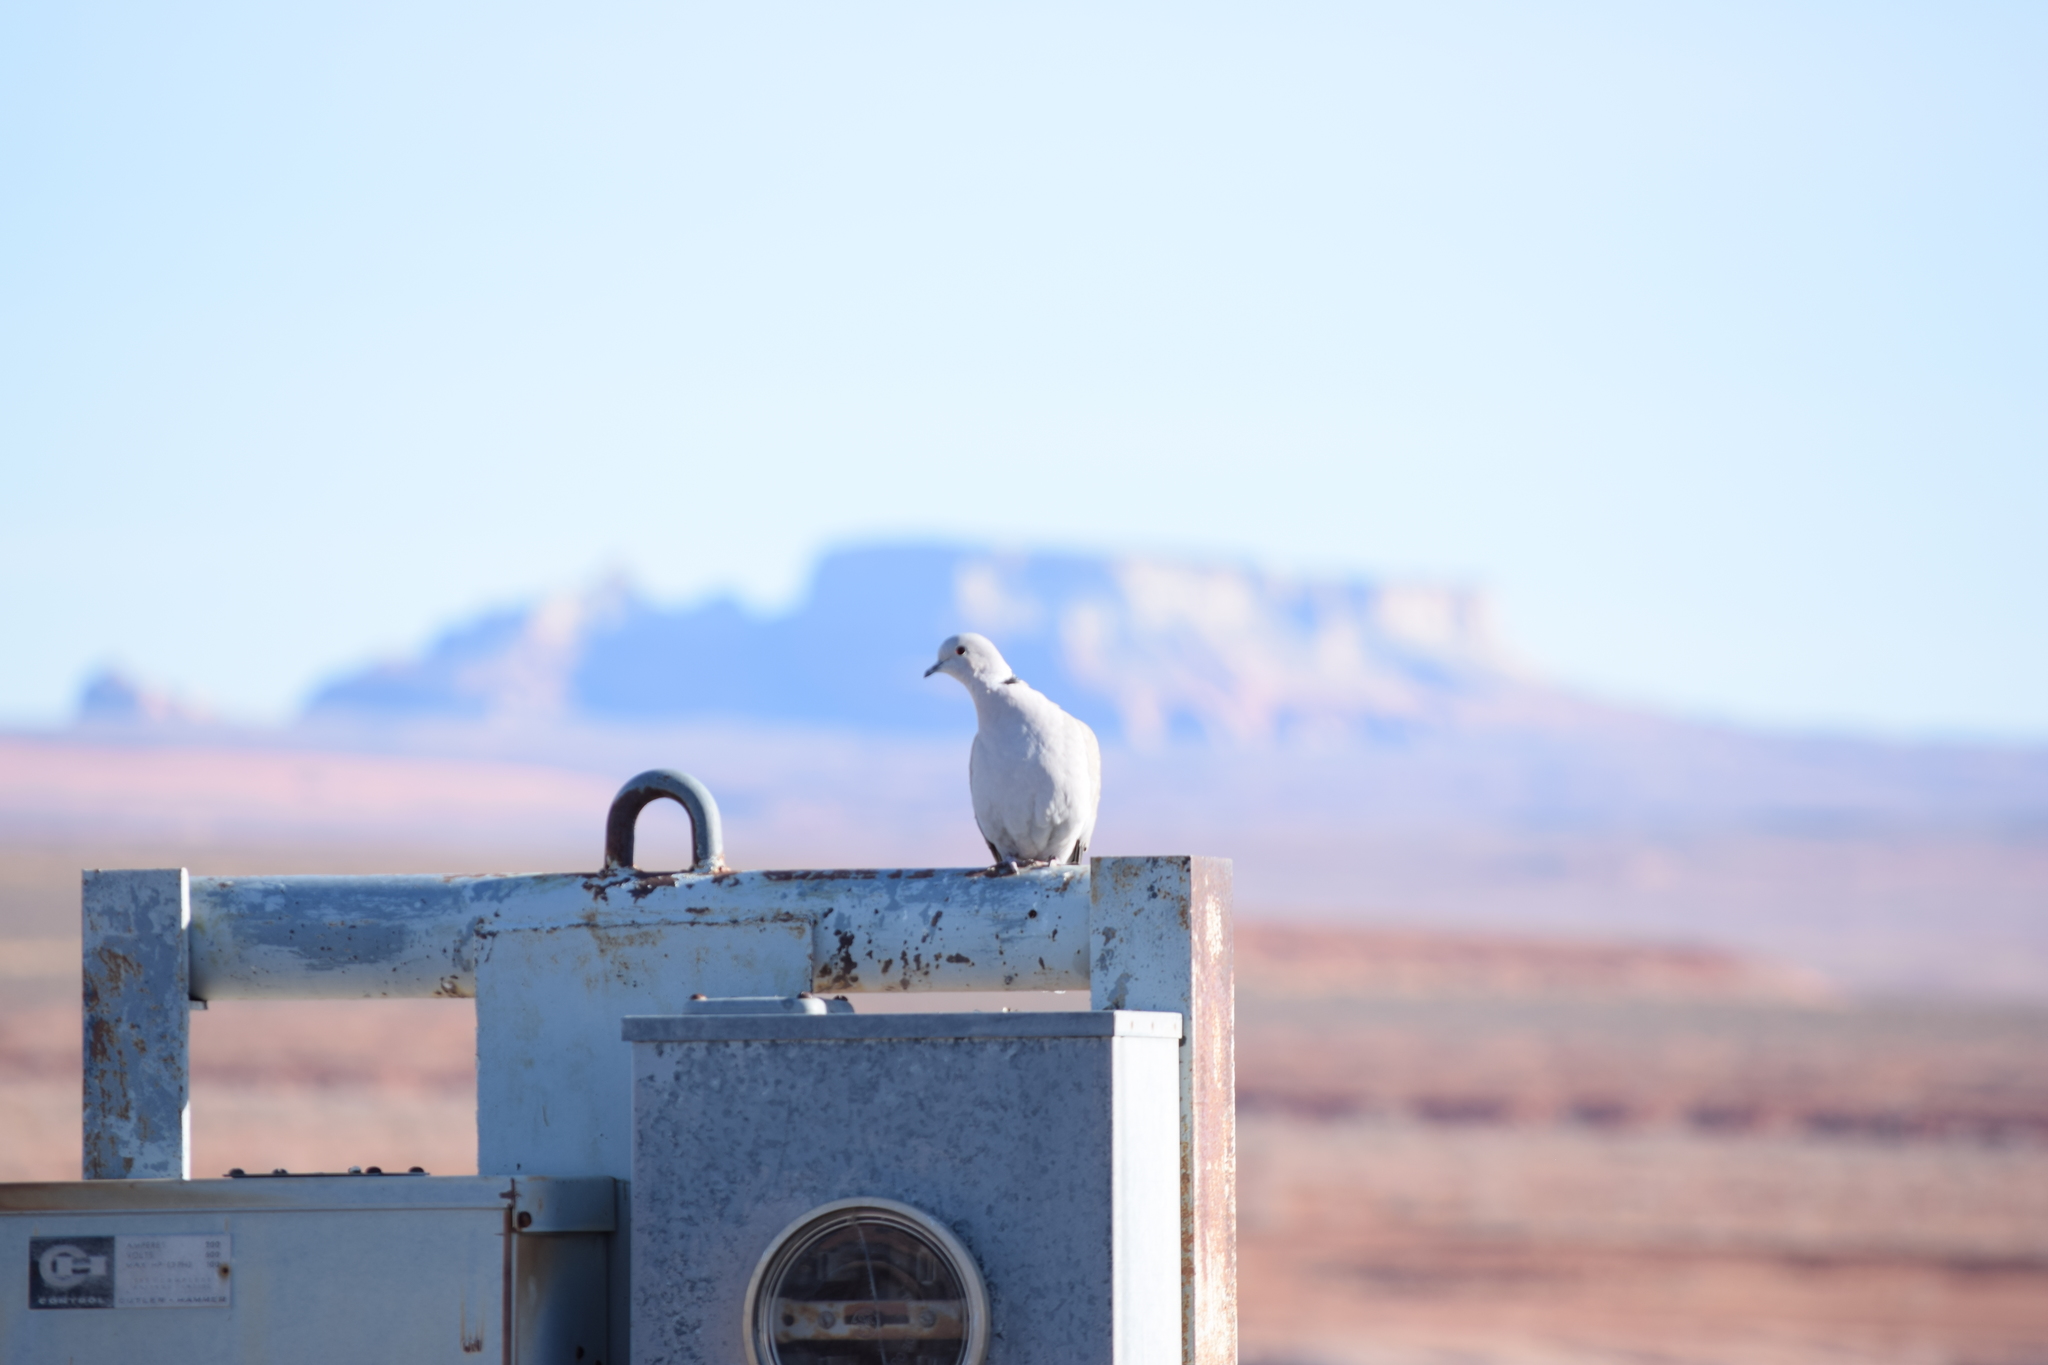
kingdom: Animalia
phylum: Chordata
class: Aves
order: Columbiformes
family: Columbidae
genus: Streptopelia
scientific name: Streptopelia decaocto
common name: Eurasian collared dove
